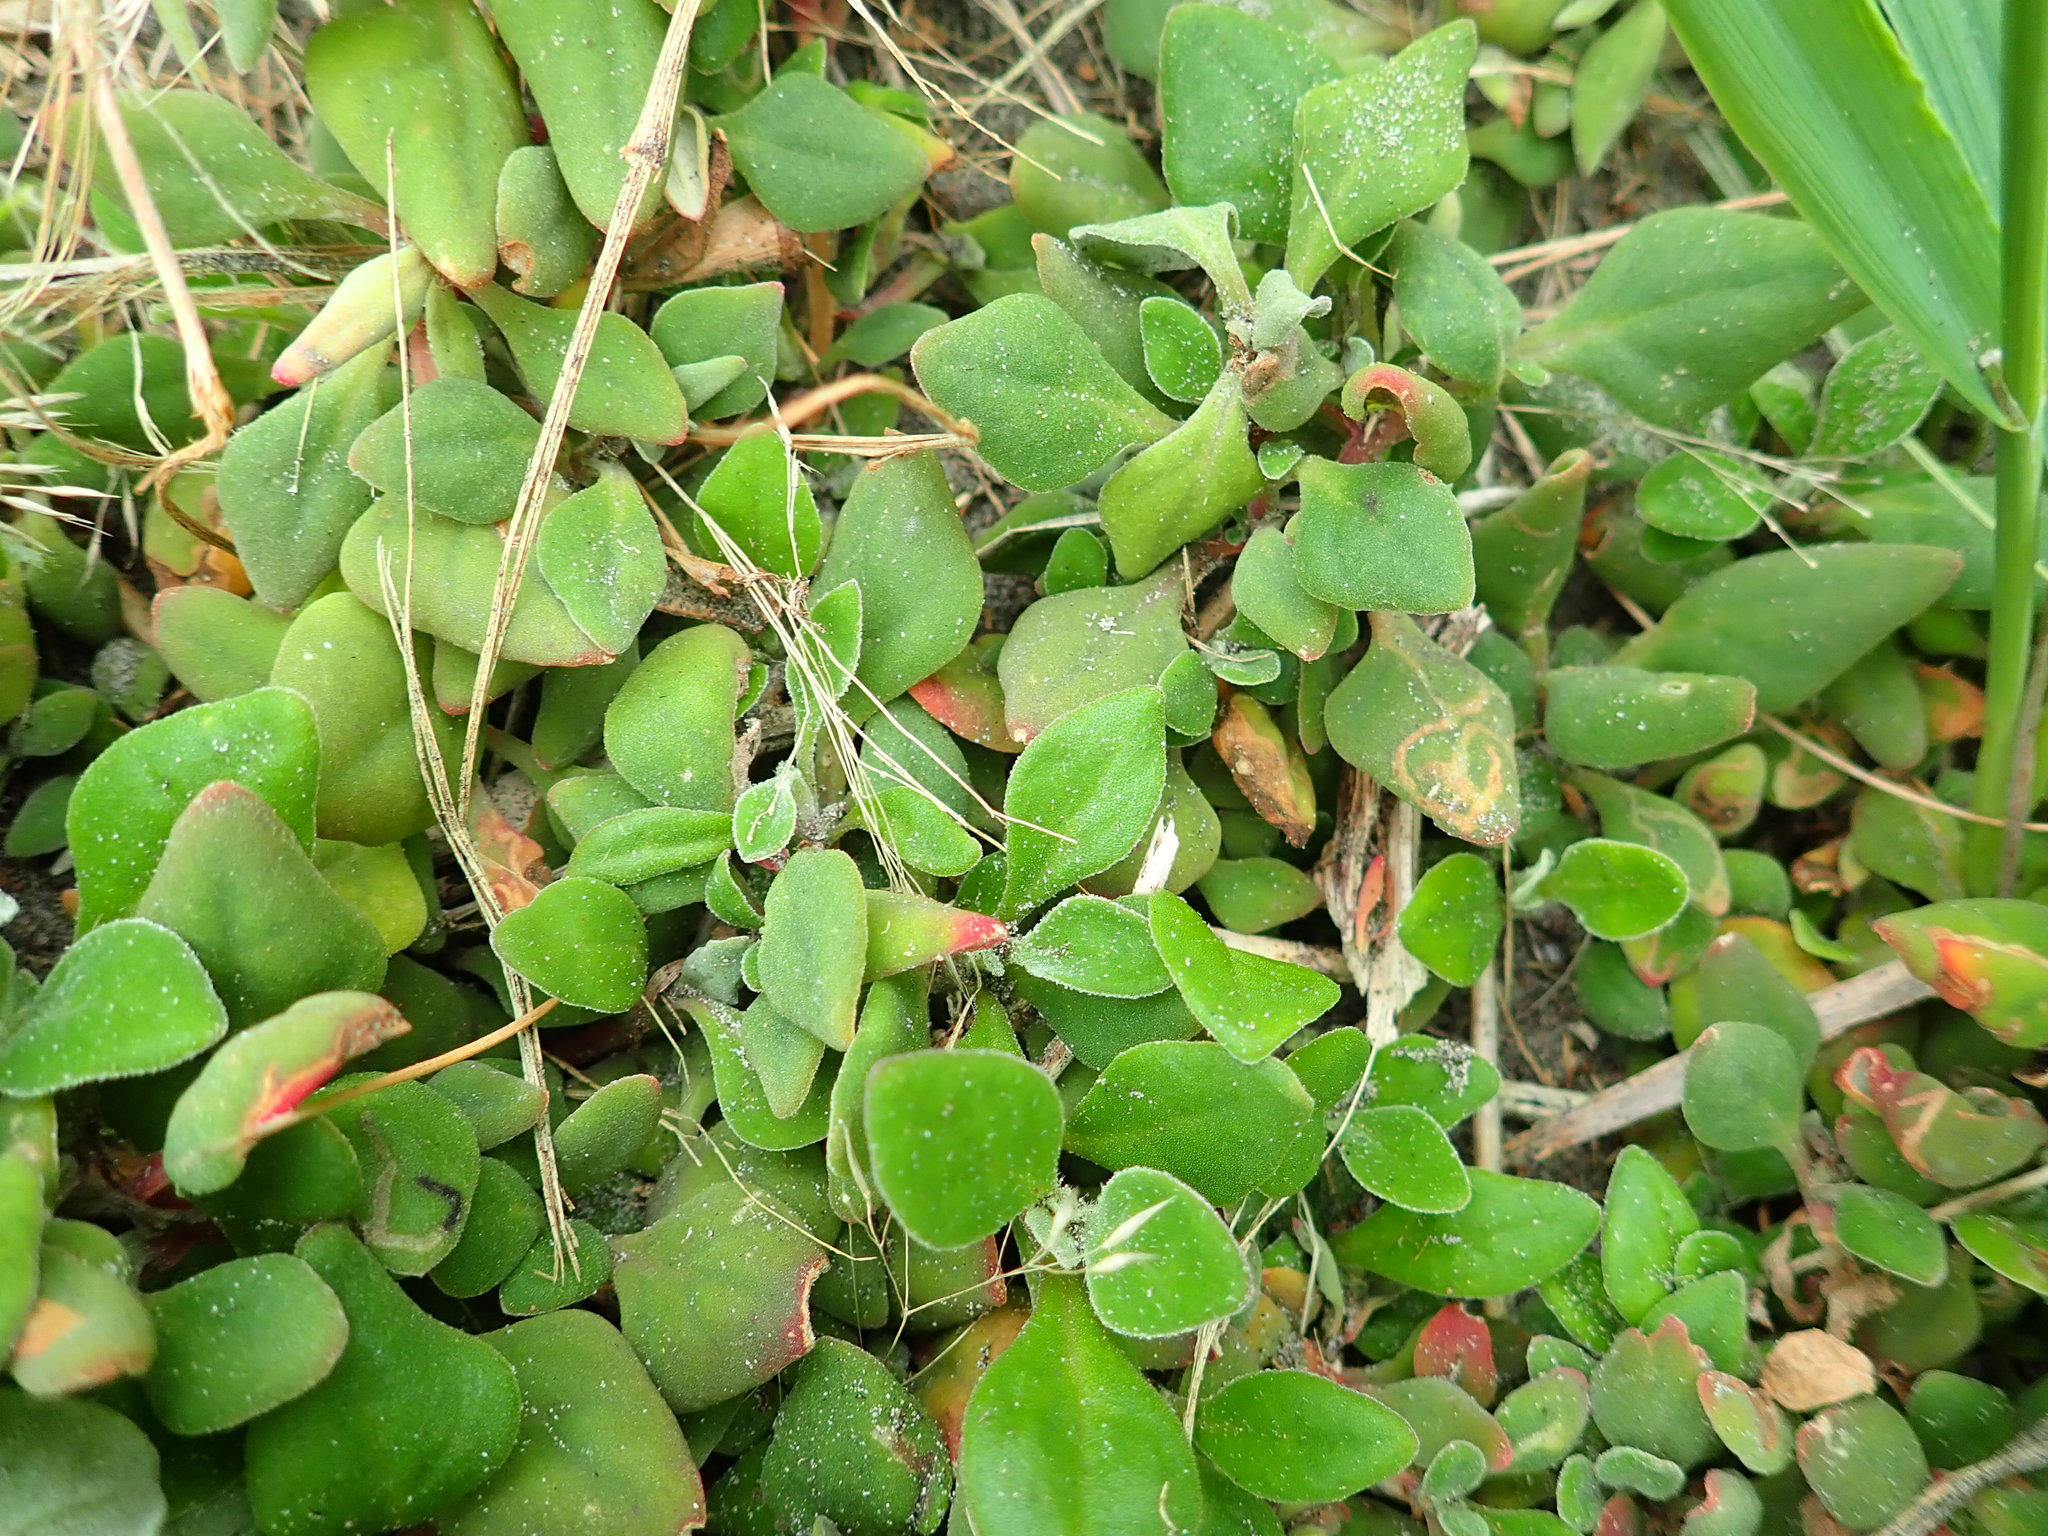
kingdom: Plantae
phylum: Tracheophyta
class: Magnoliopsida
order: Caryophyllales
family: Aizoaceae
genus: Tetragonia
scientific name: Tetragonia implexicoma
